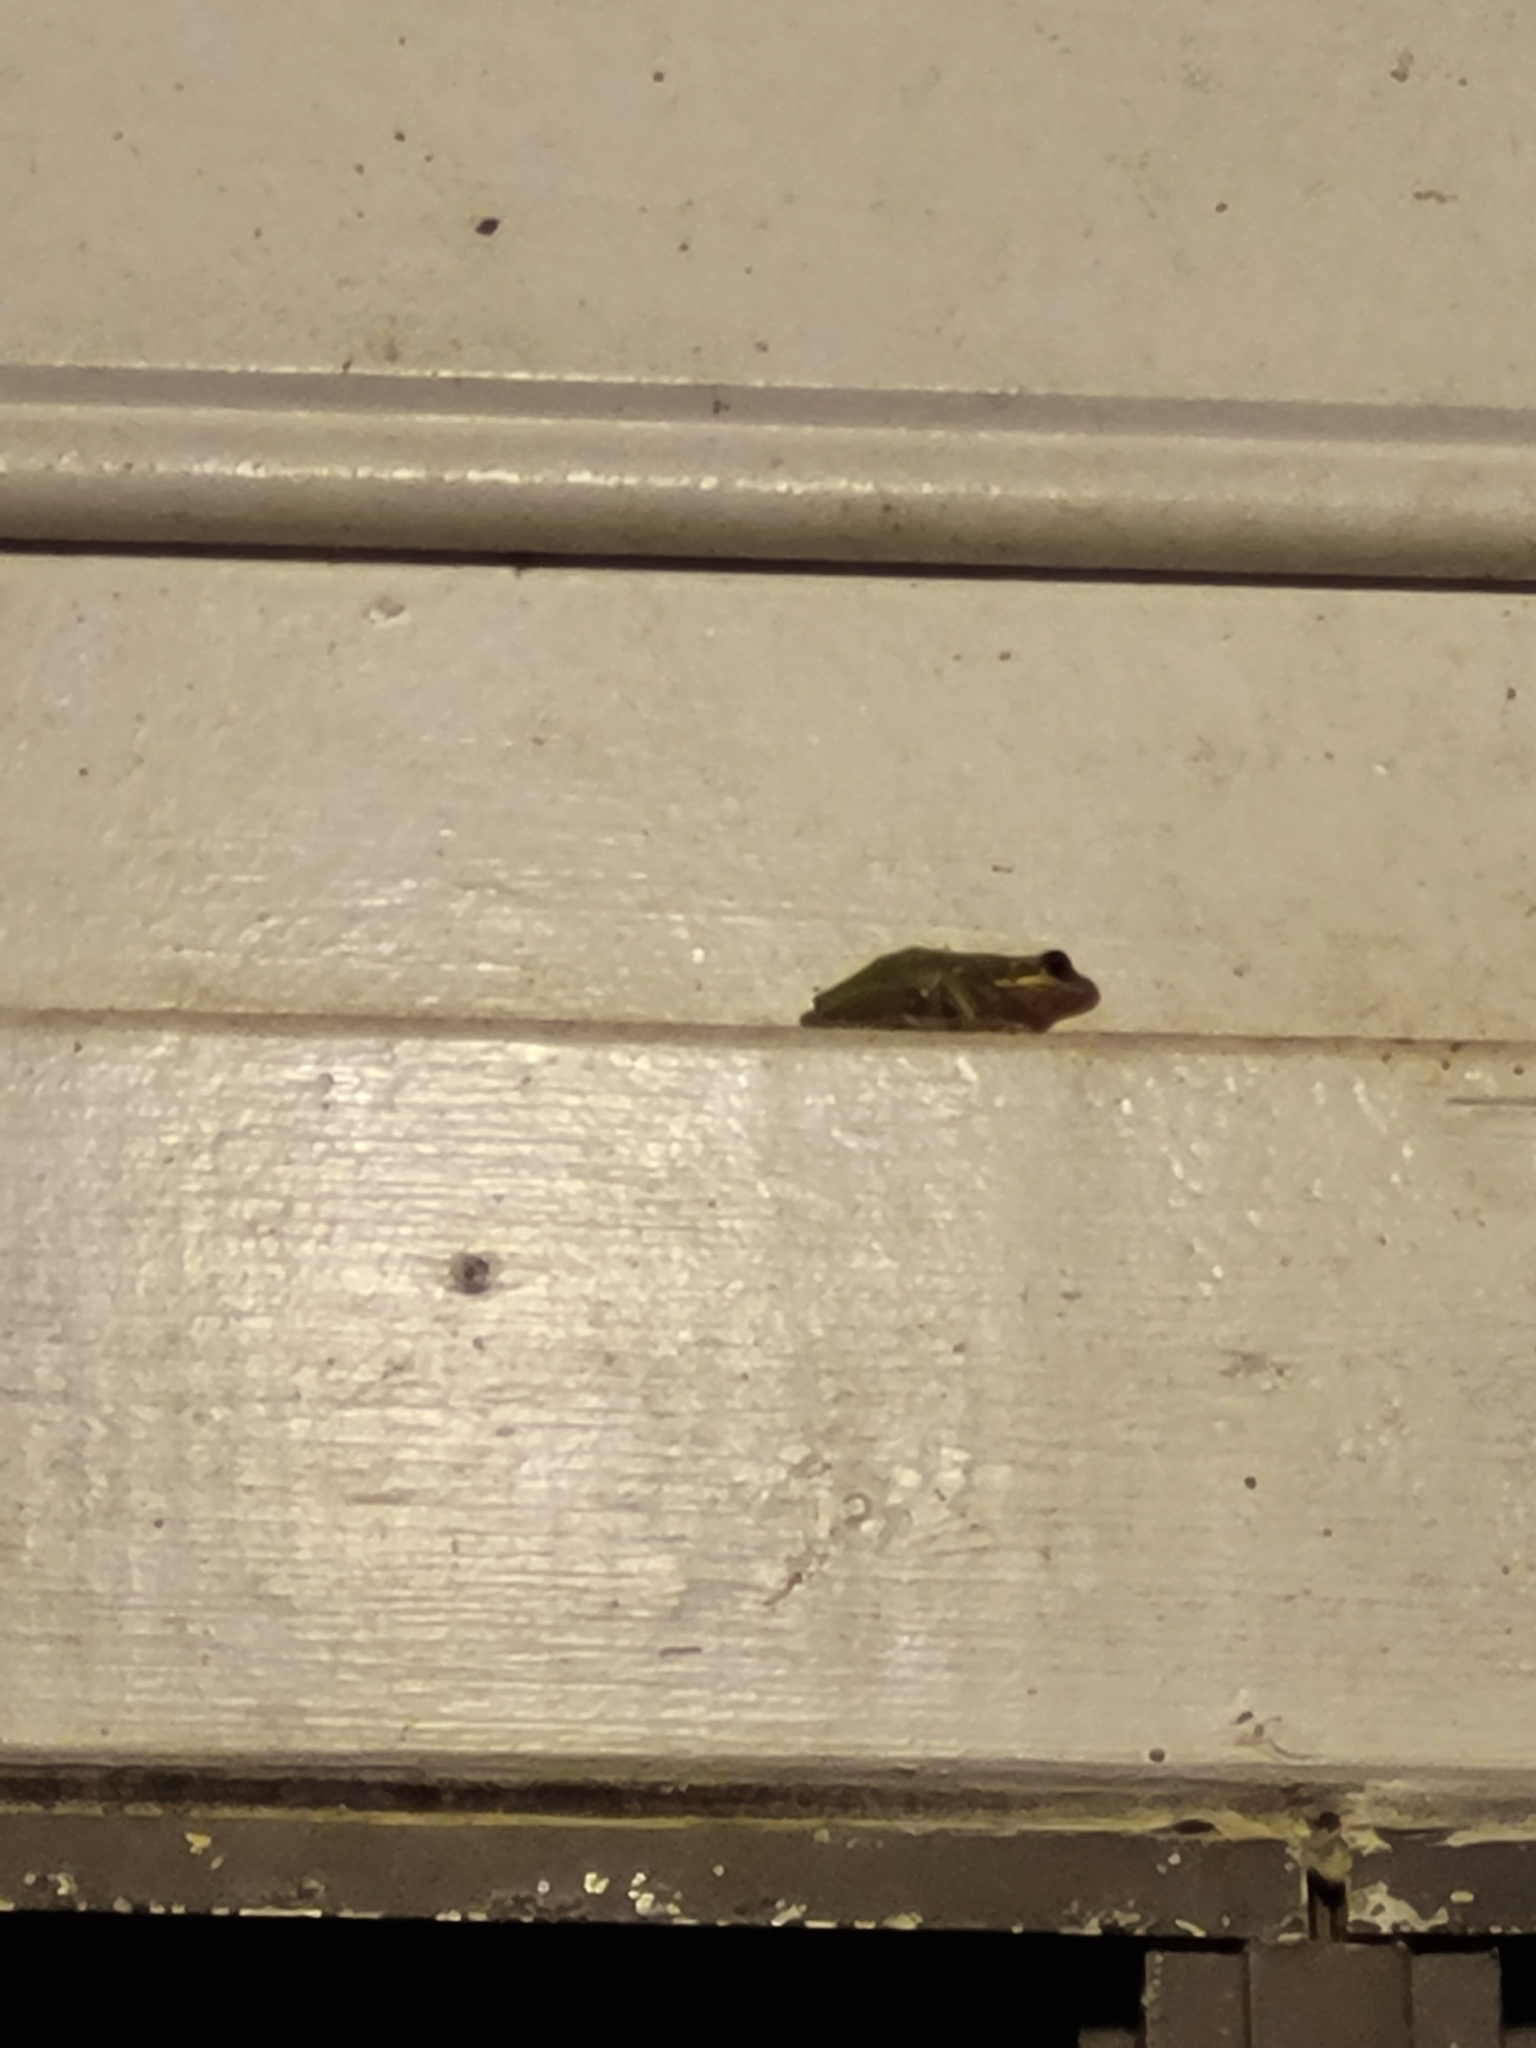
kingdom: Animalia
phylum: Chordata
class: Amphibia
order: Anura
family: Hylidae
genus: Dryophytes
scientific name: Dryophytes squirellus
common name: Squirrel treefrog
